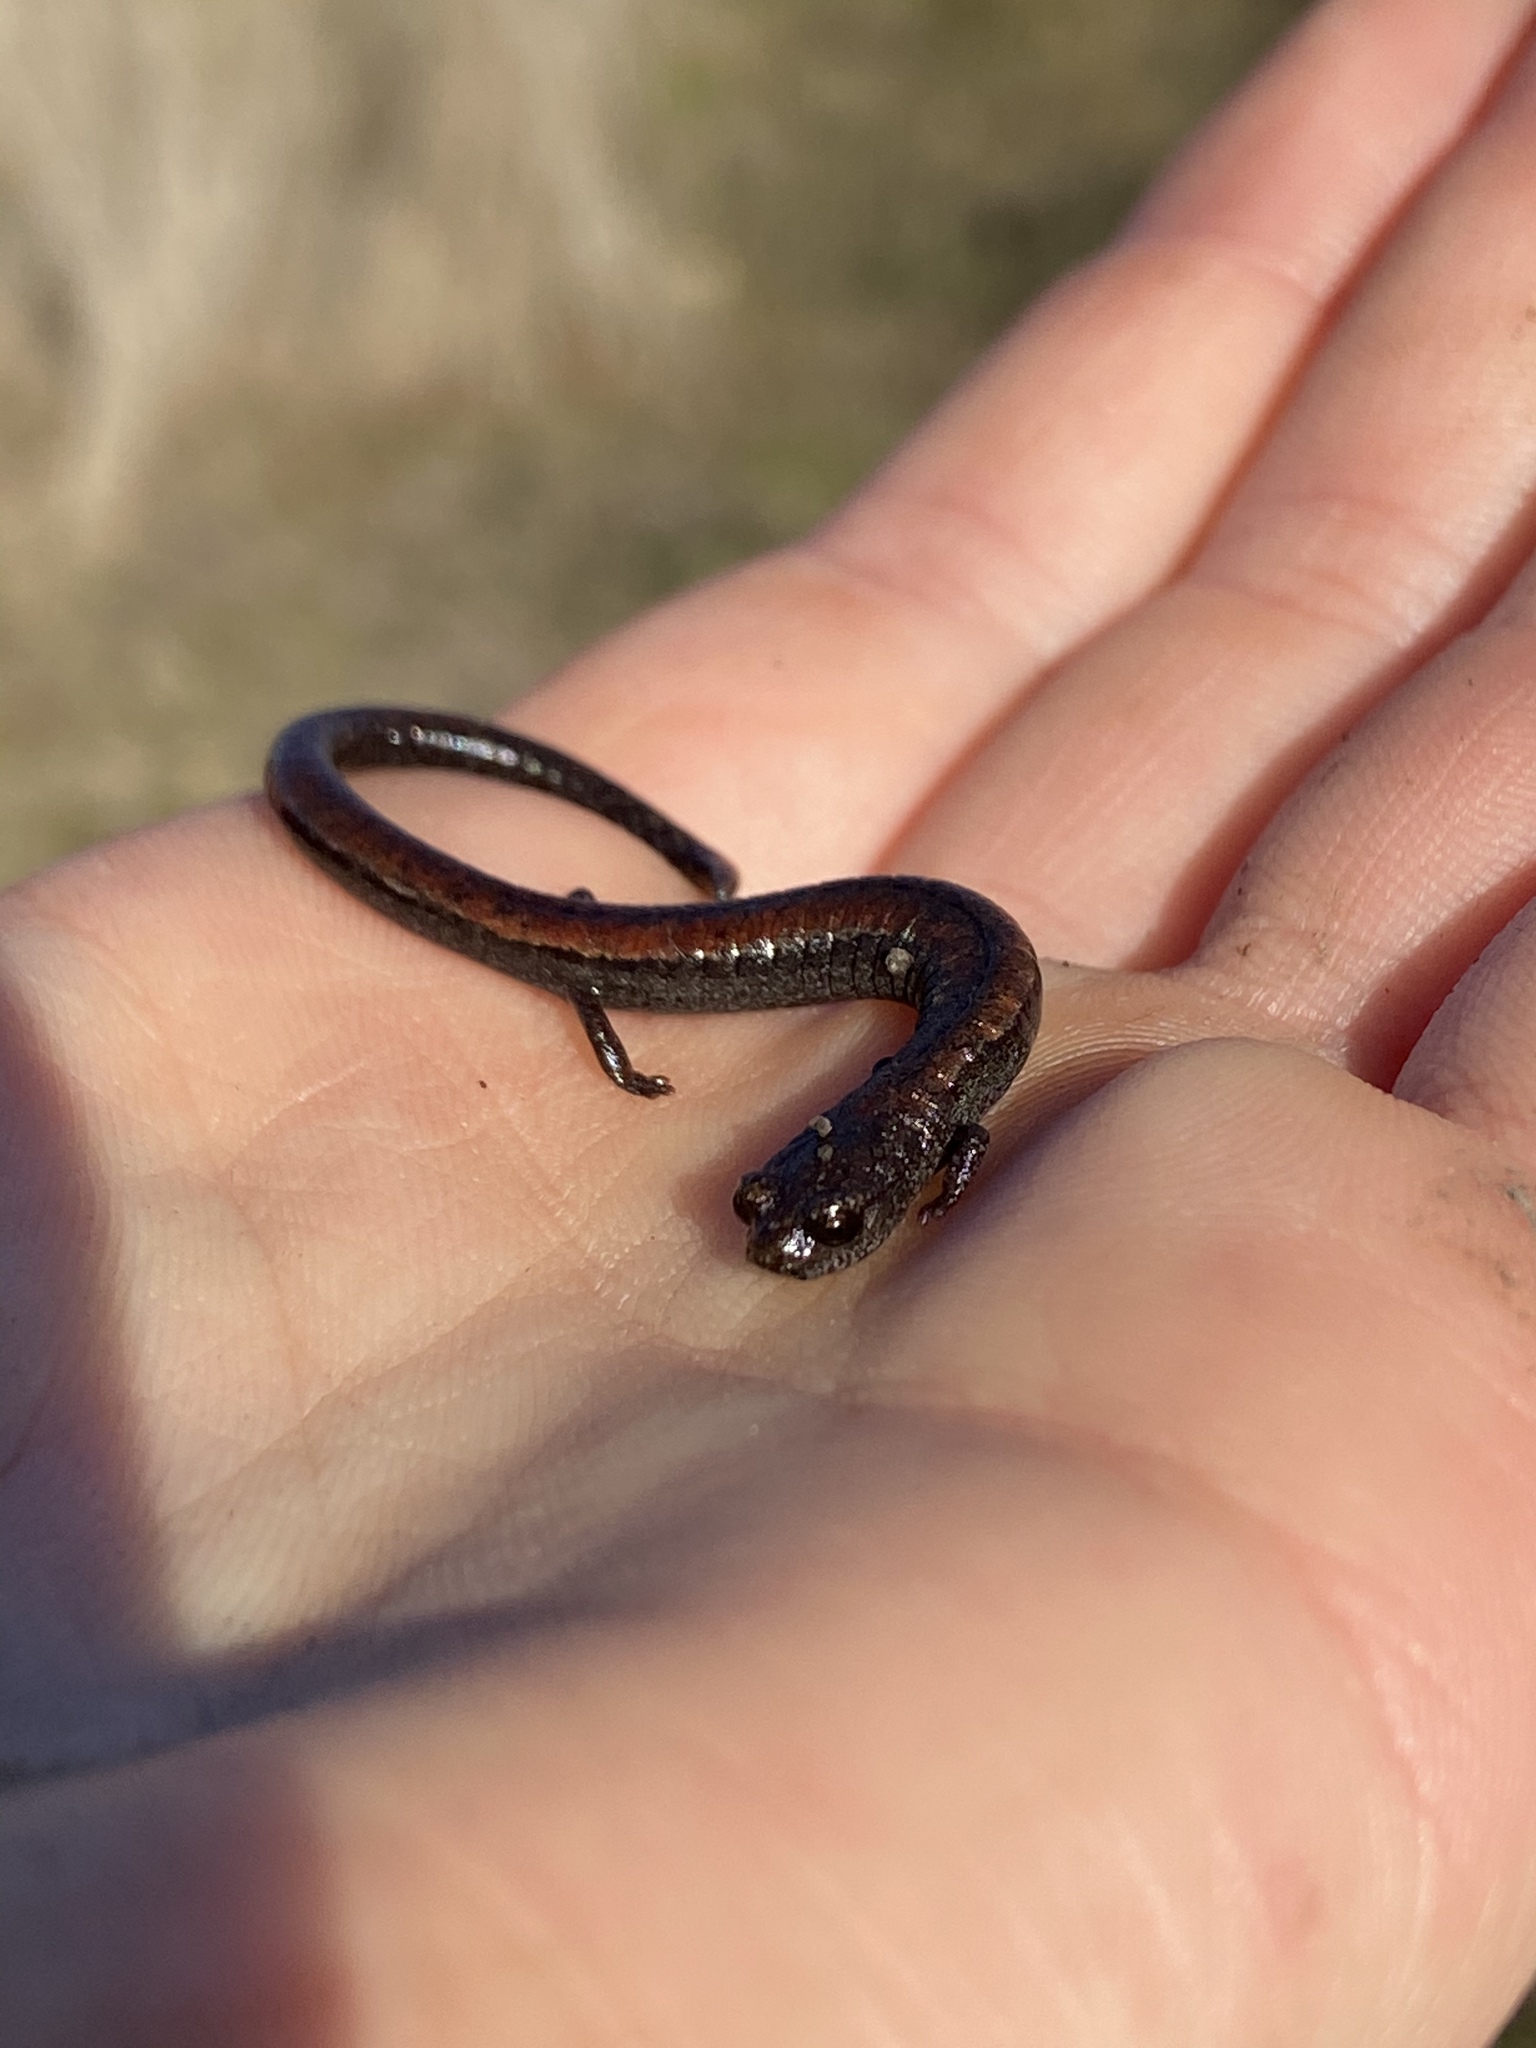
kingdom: Animalia
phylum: Chordata
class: Amphibia
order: Caudata
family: Plethodontidae
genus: Batrachoseps
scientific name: Batrachoseps attenuatus
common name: California slender salamander
